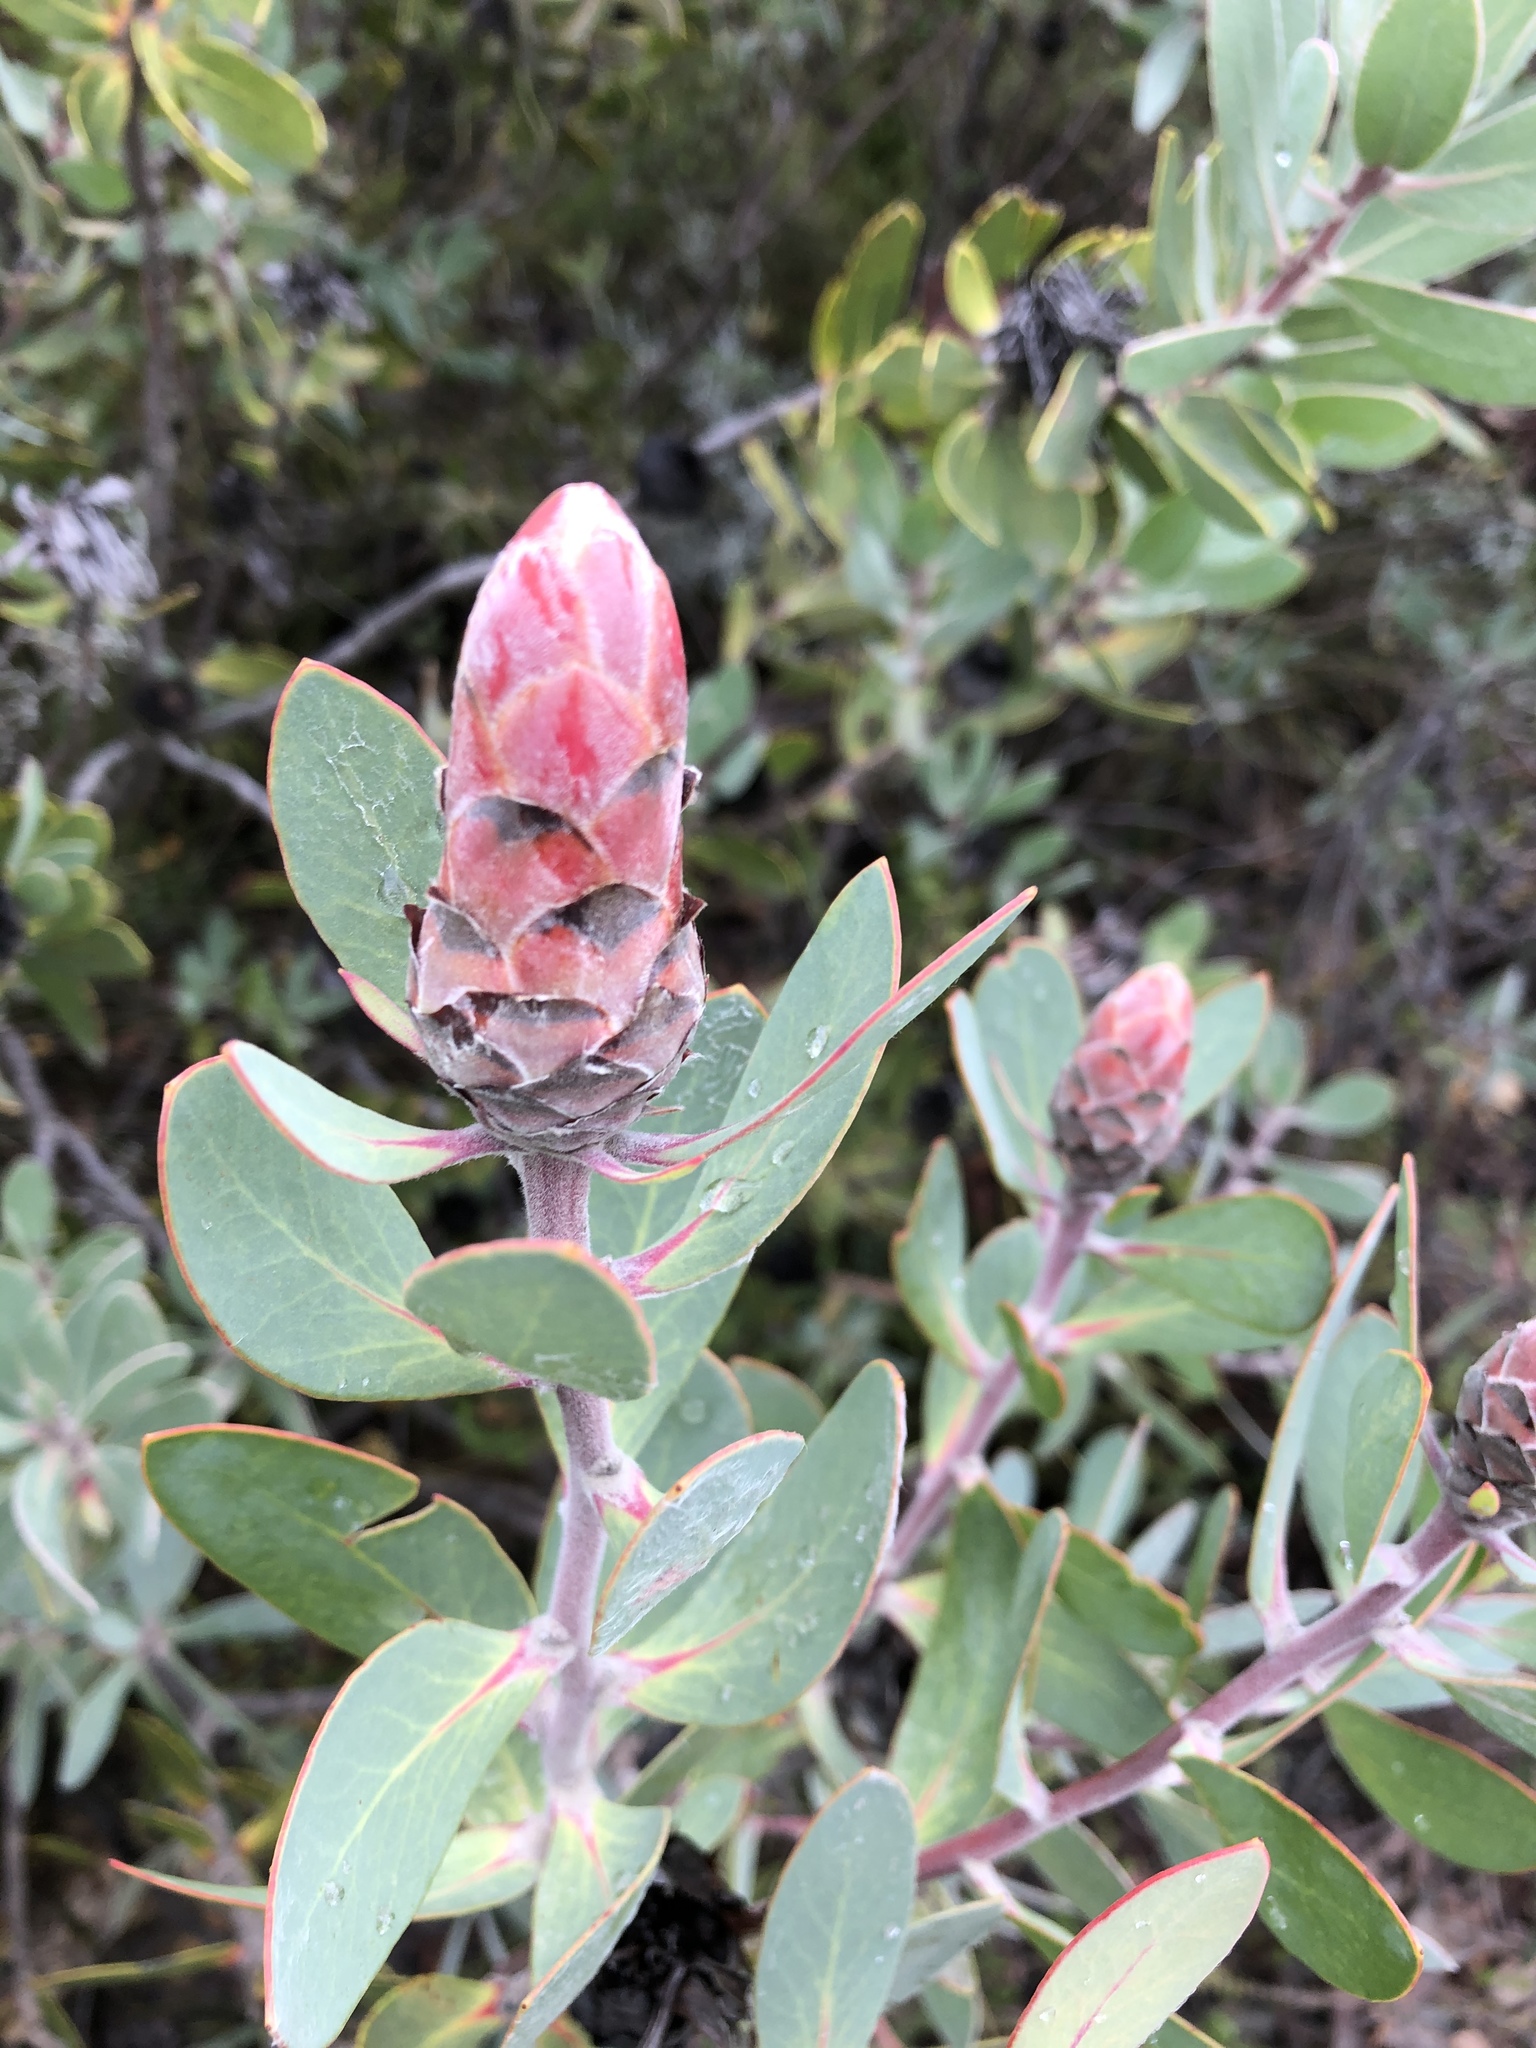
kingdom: Plantae
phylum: Tracheophyta
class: Magnoliopsida
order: Proteales
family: Proteaceae
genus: Protea
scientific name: Protea punctata
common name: Water sugarbush
